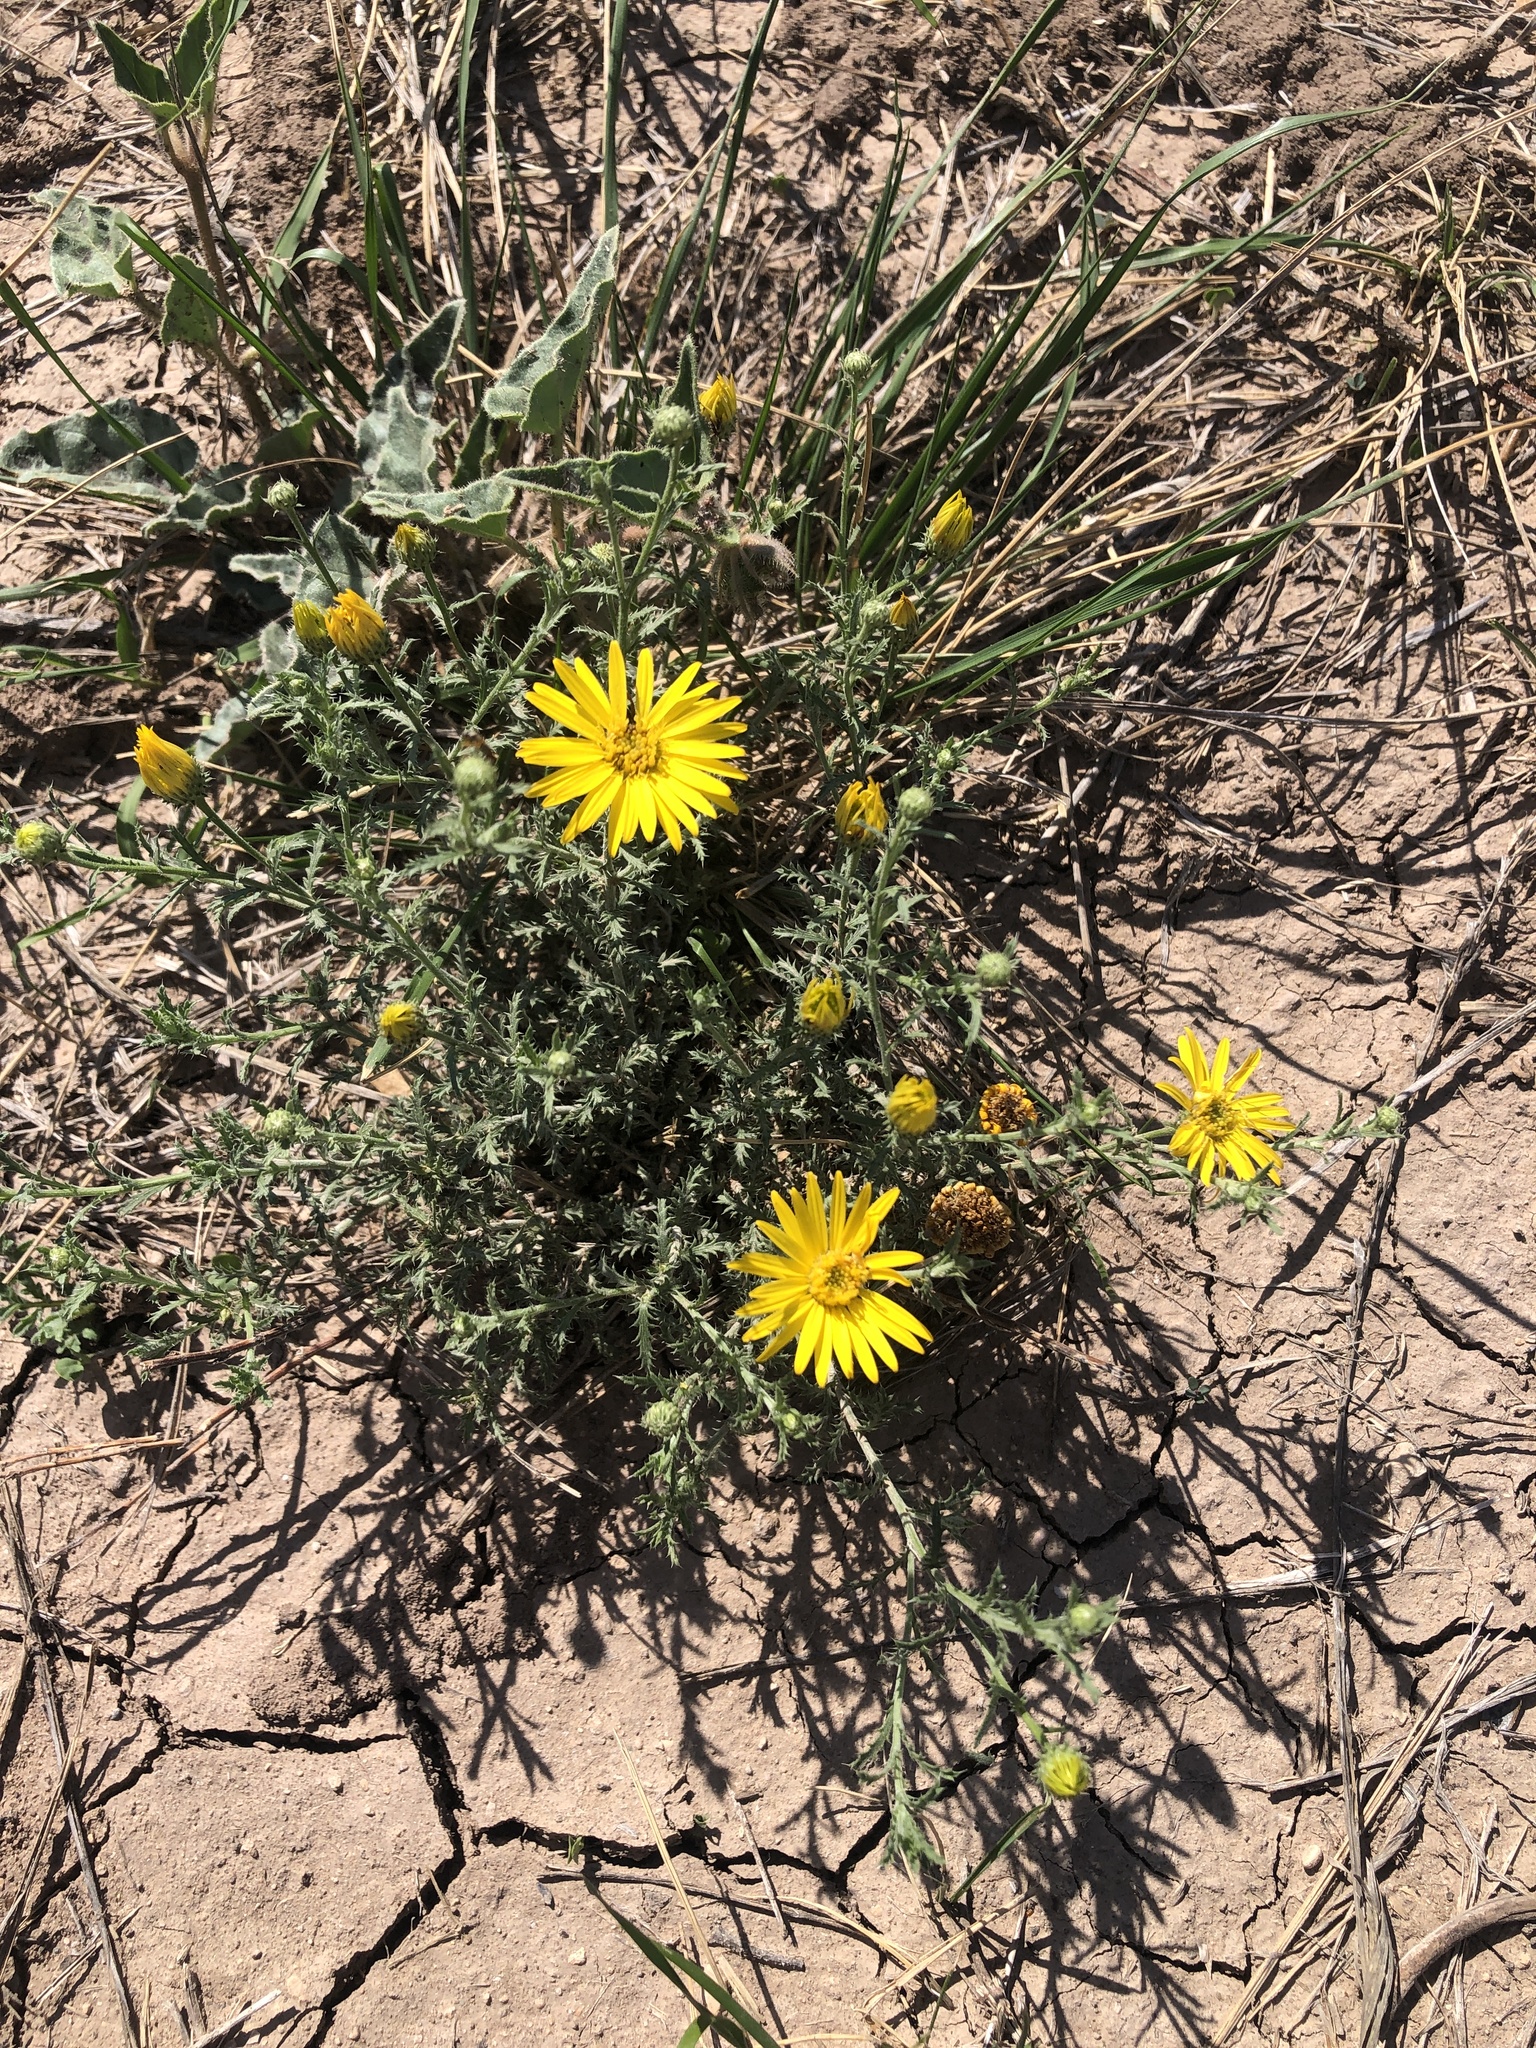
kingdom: Plantae
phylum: Tracheophyta
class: Magnoliopsida
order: Asterales
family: Asteraceae
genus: Xanthisma
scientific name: Xanthisma spinulosum
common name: Spiny goldenweed
